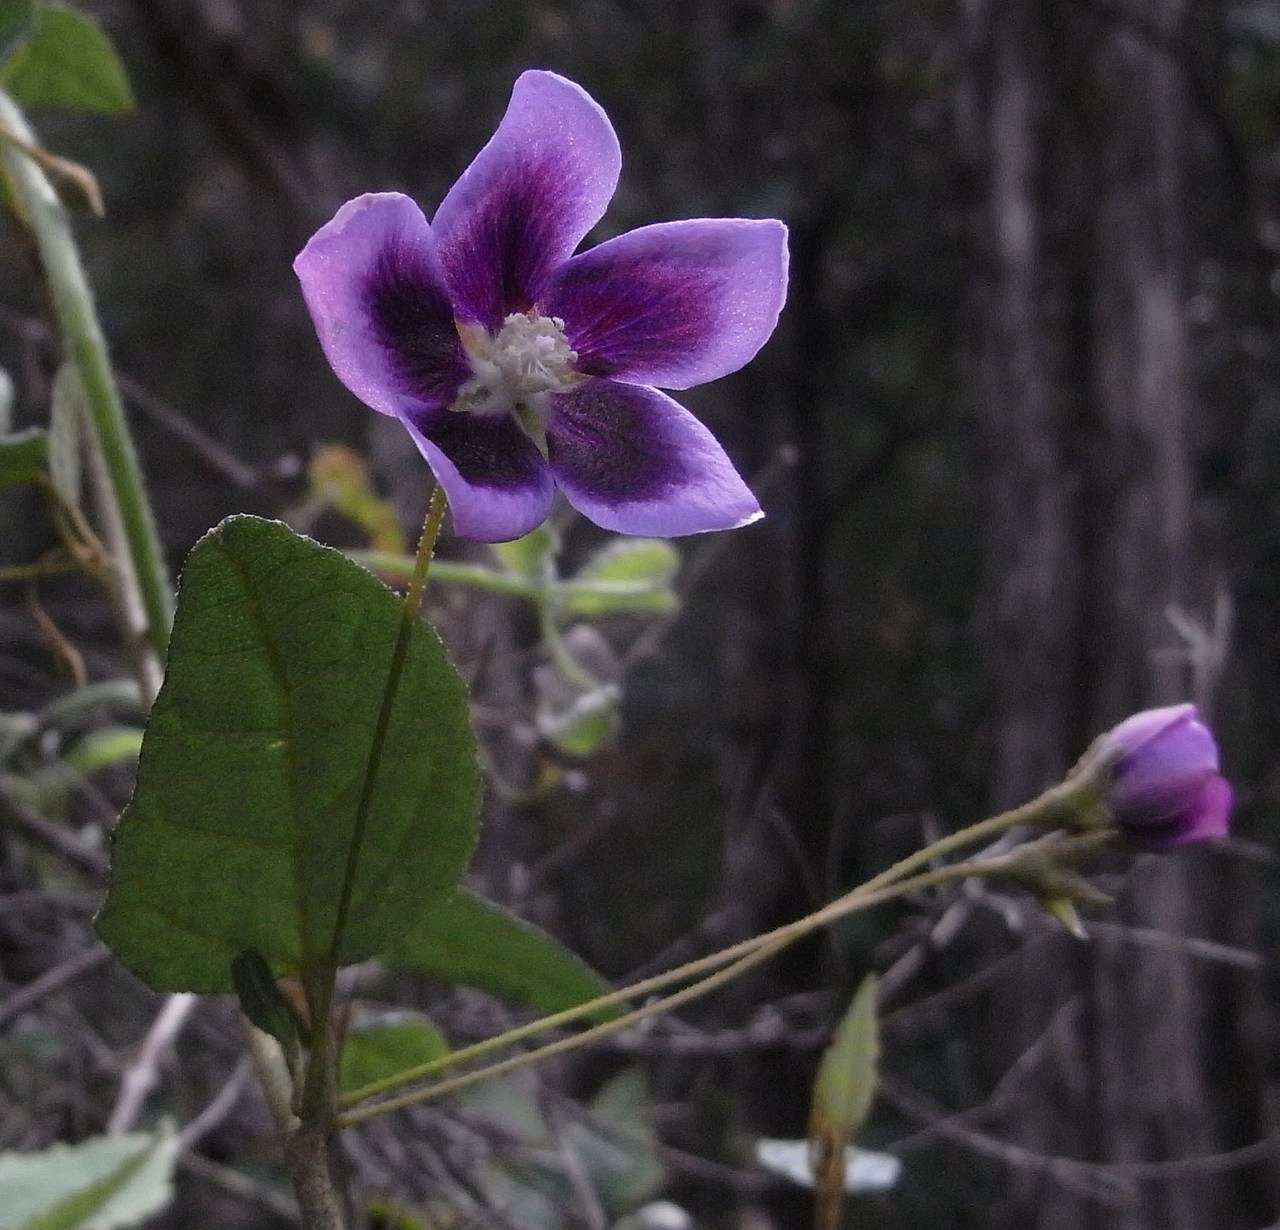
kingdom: Plantae
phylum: Tracheophyta
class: Magnoliopsida
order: Malvales
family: Malvaceae
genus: Howittia
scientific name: Howittia trilocularis
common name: Blue howittia
